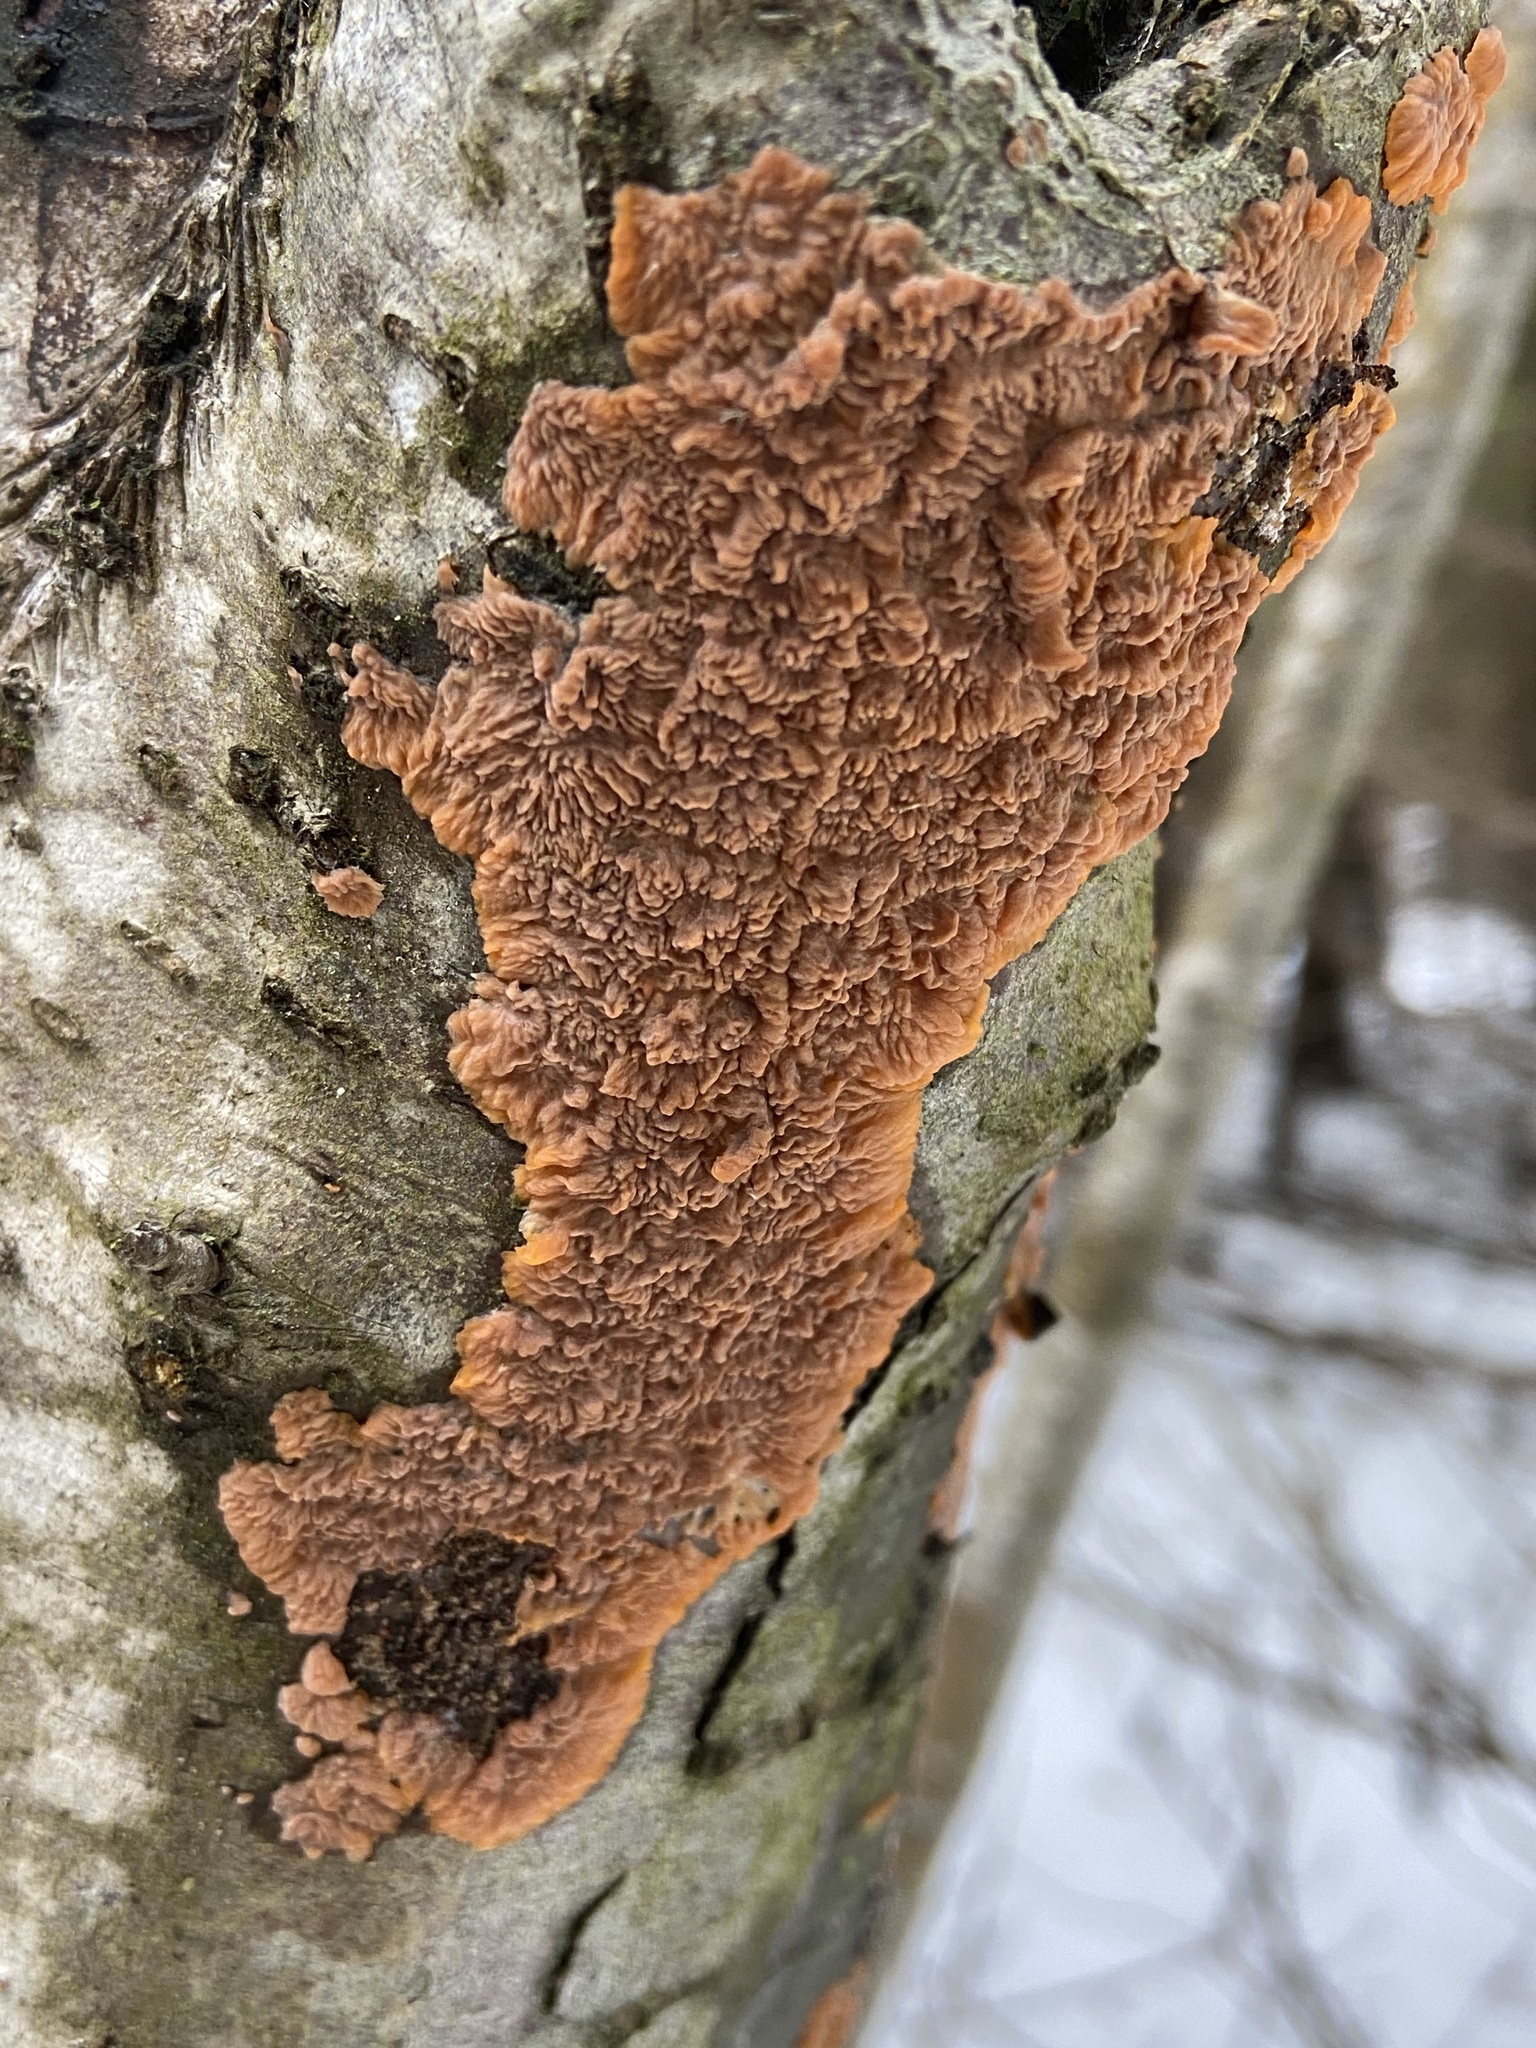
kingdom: Fungi
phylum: Basidiomycota
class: Agaricomycetes
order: Polyporales
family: Meruliaceae
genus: Phlebia
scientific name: Phlebia radiata
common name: Wrinkled crust
